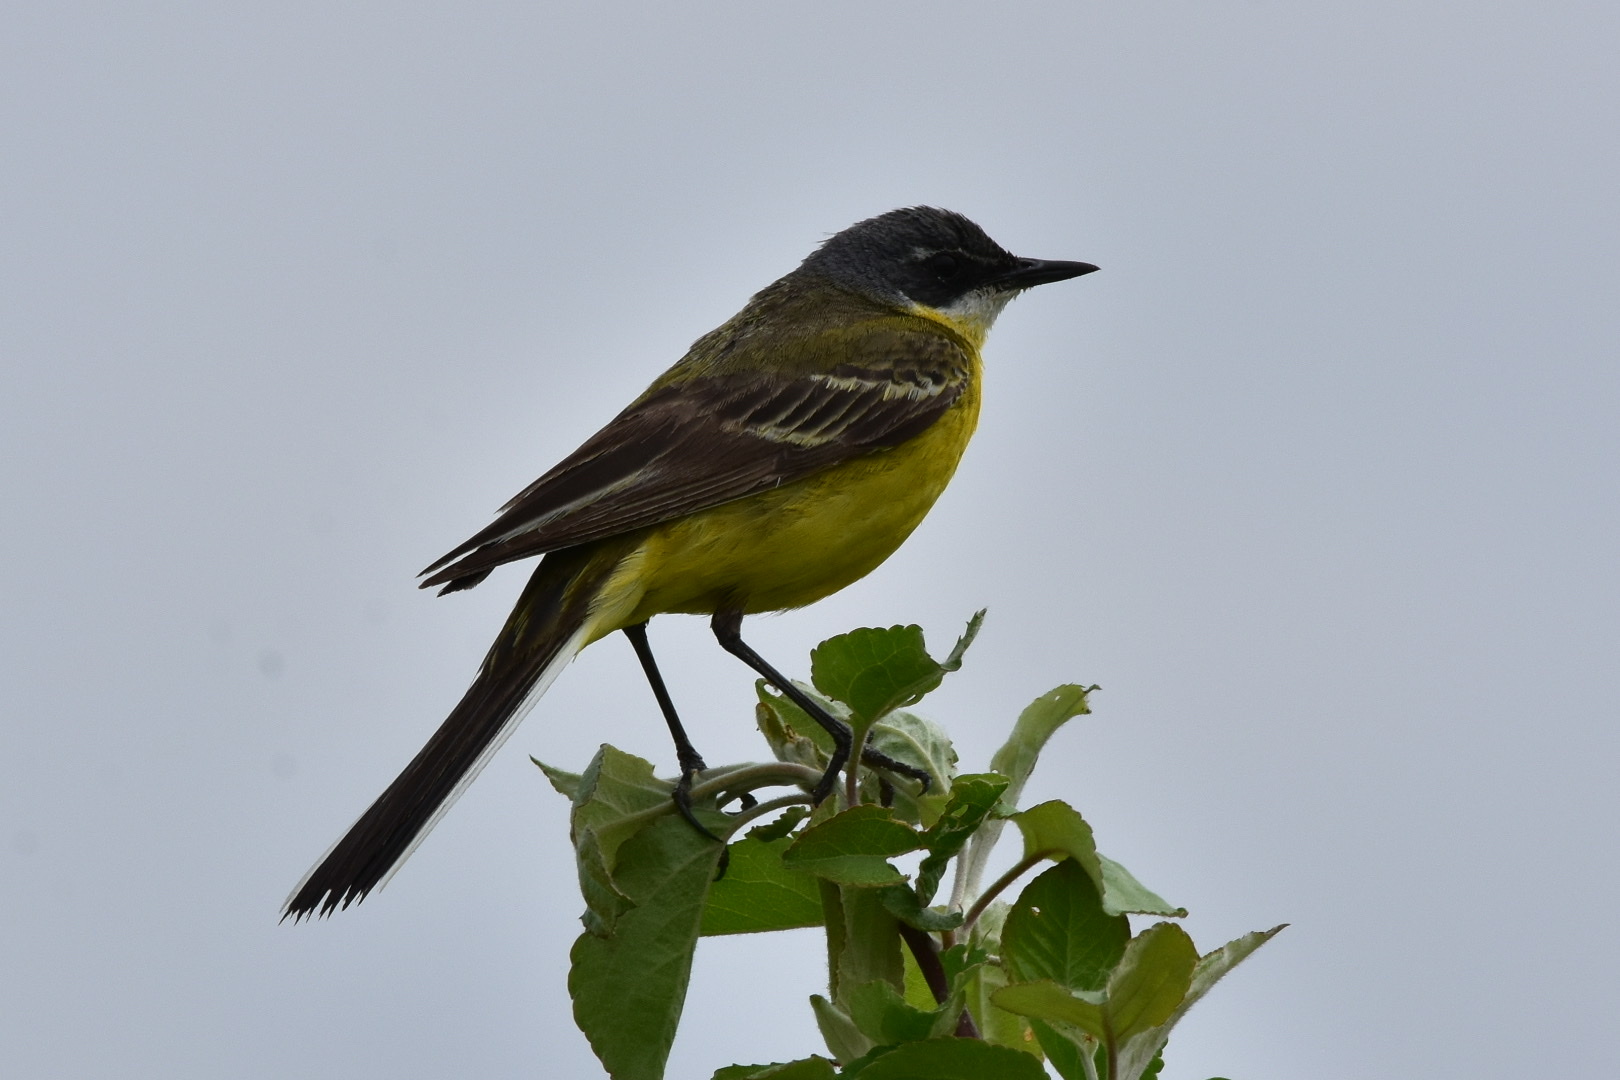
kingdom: Animalia
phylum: Chordata
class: Aves
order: Passeriformes
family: Motacillidae
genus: Motacilla
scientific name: Motacilla flava
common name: Western yellow wagtail
